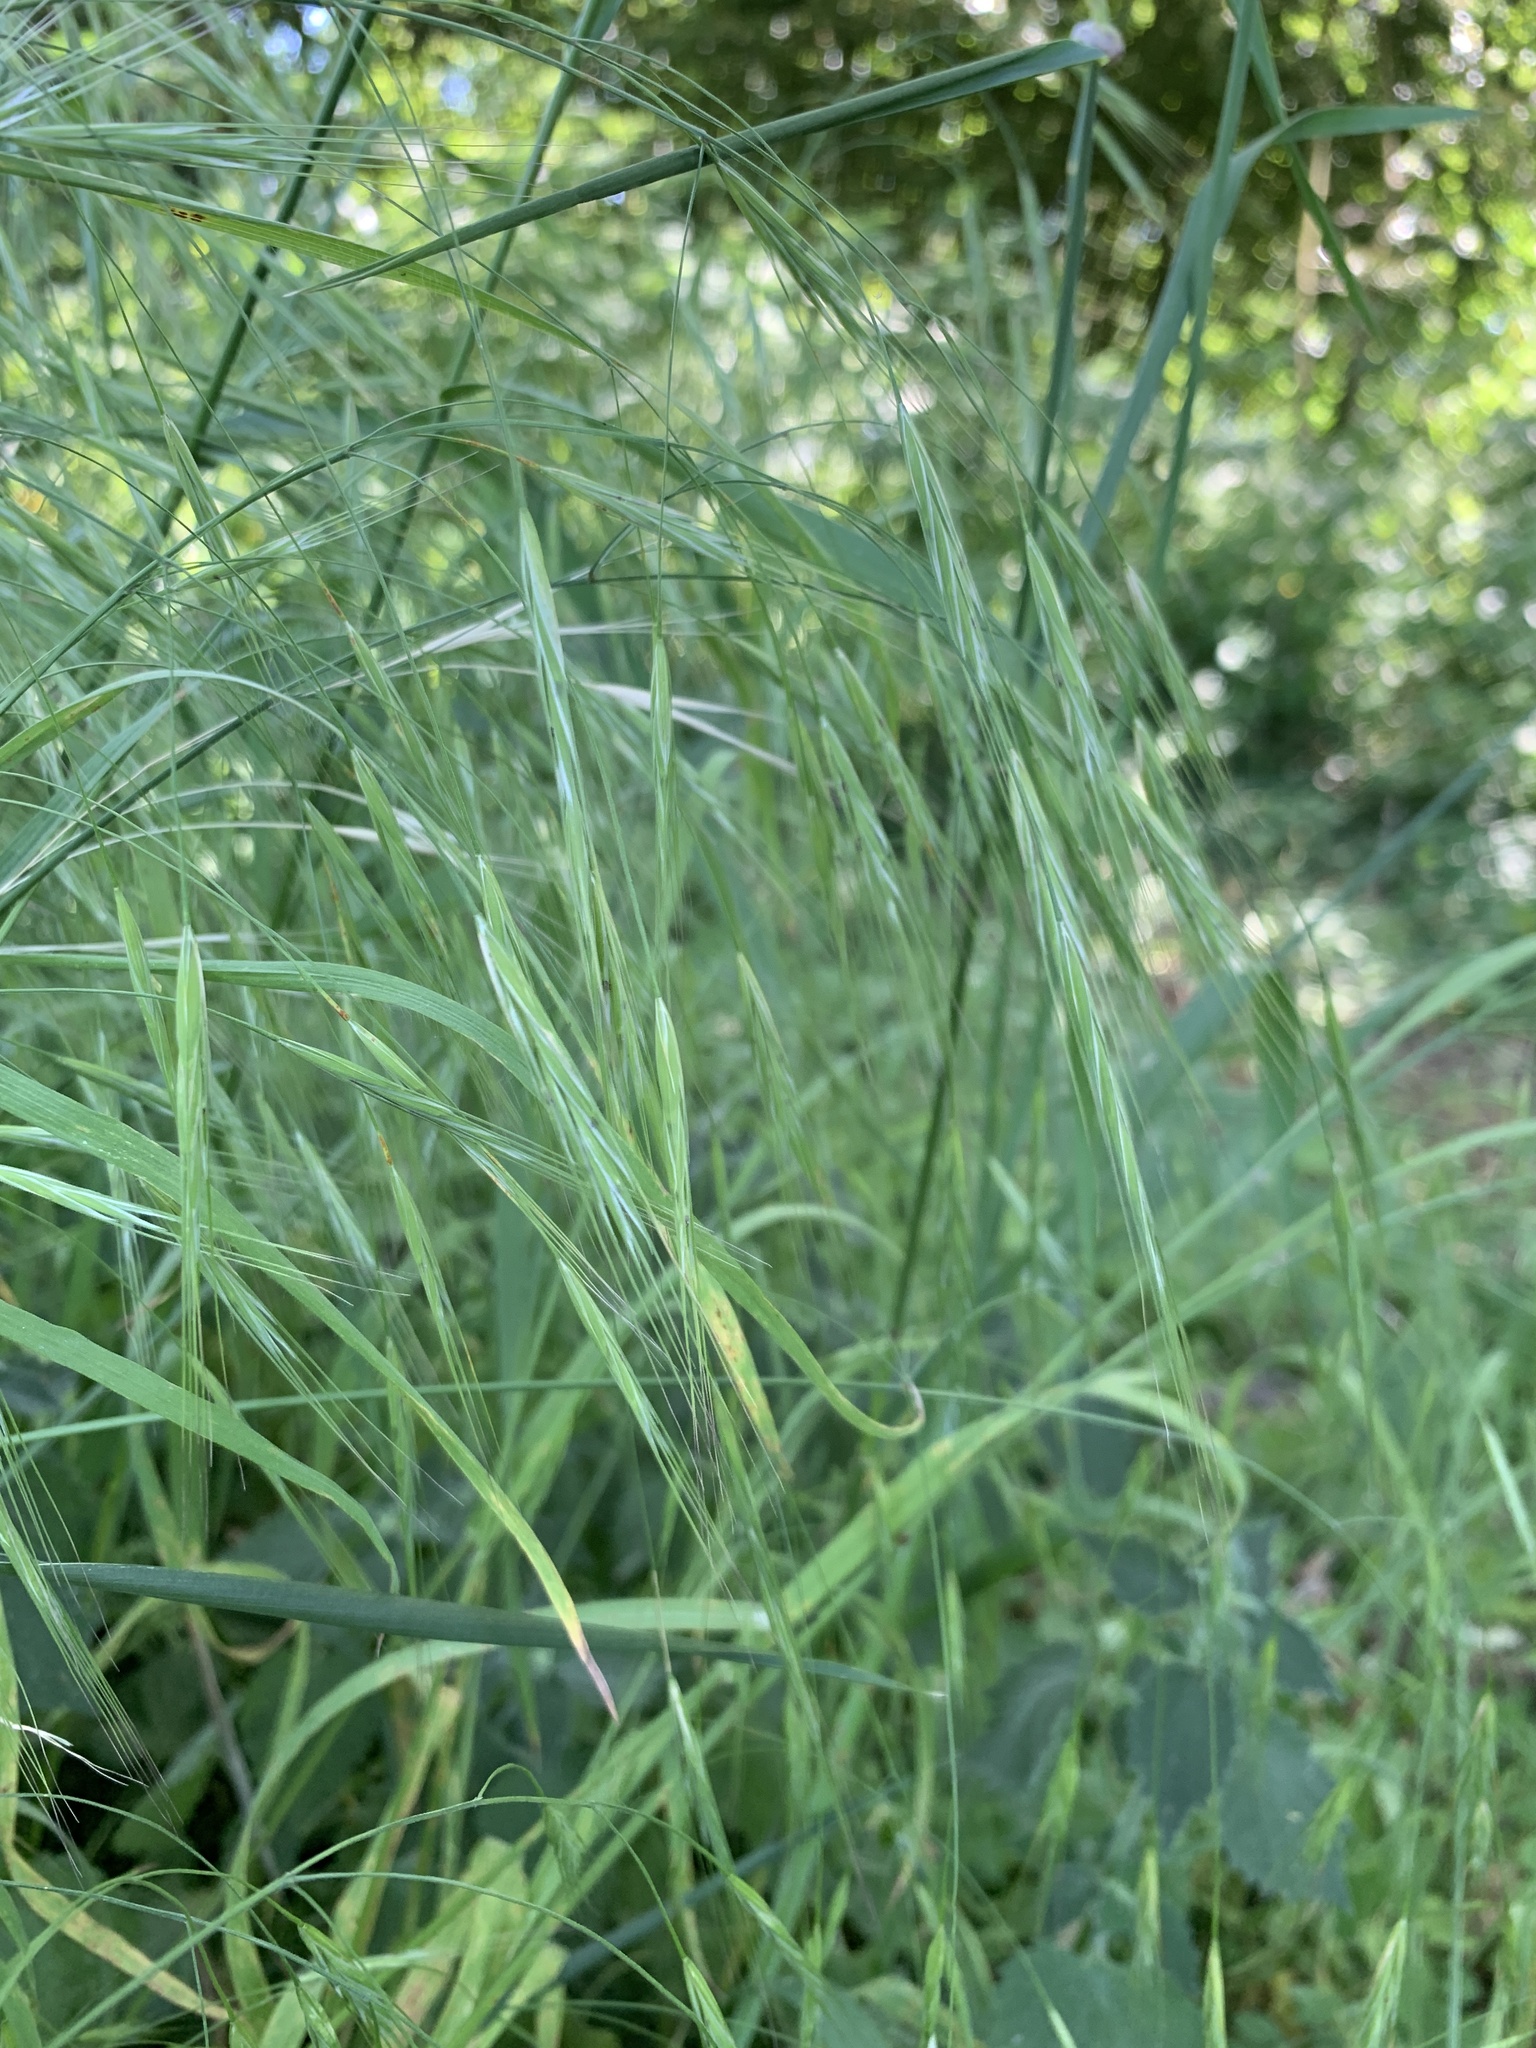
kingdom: Plantae
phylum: Tracheophyta
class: Liliopsida
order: Poales
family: Poaceae
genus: Bromus
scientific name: Bromus sterilis
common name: Poverty brome
